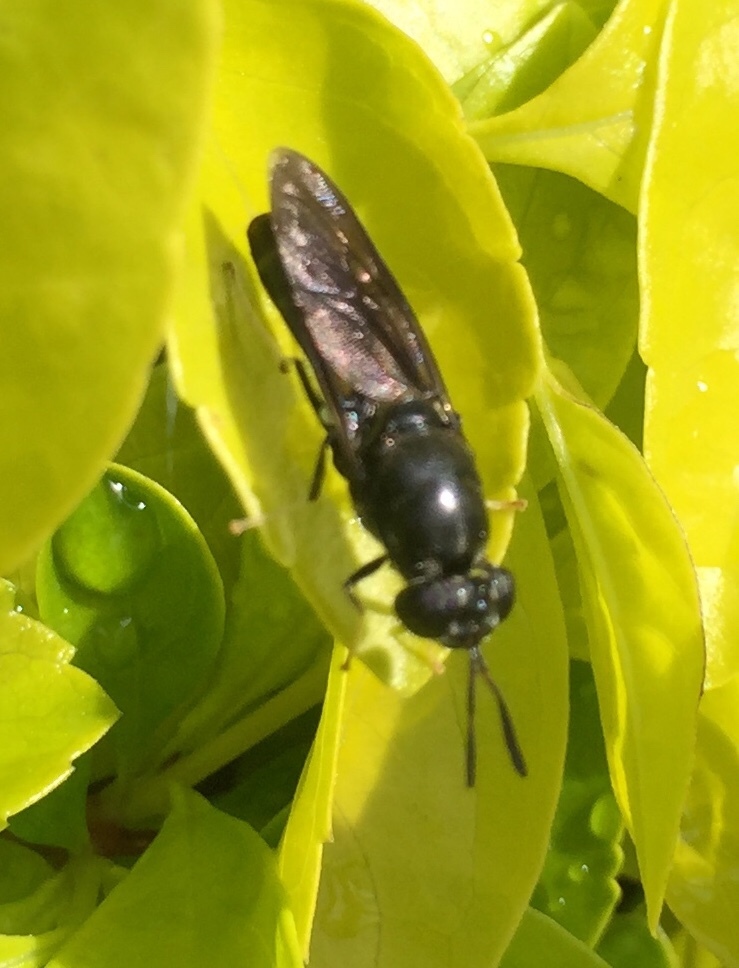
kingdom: Animalia
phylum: Arthropoda
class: Insecta
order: Diptera
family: Stratiomyidae
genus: Hermetia
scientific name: Hermetia illucens
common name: Black soldier fly
